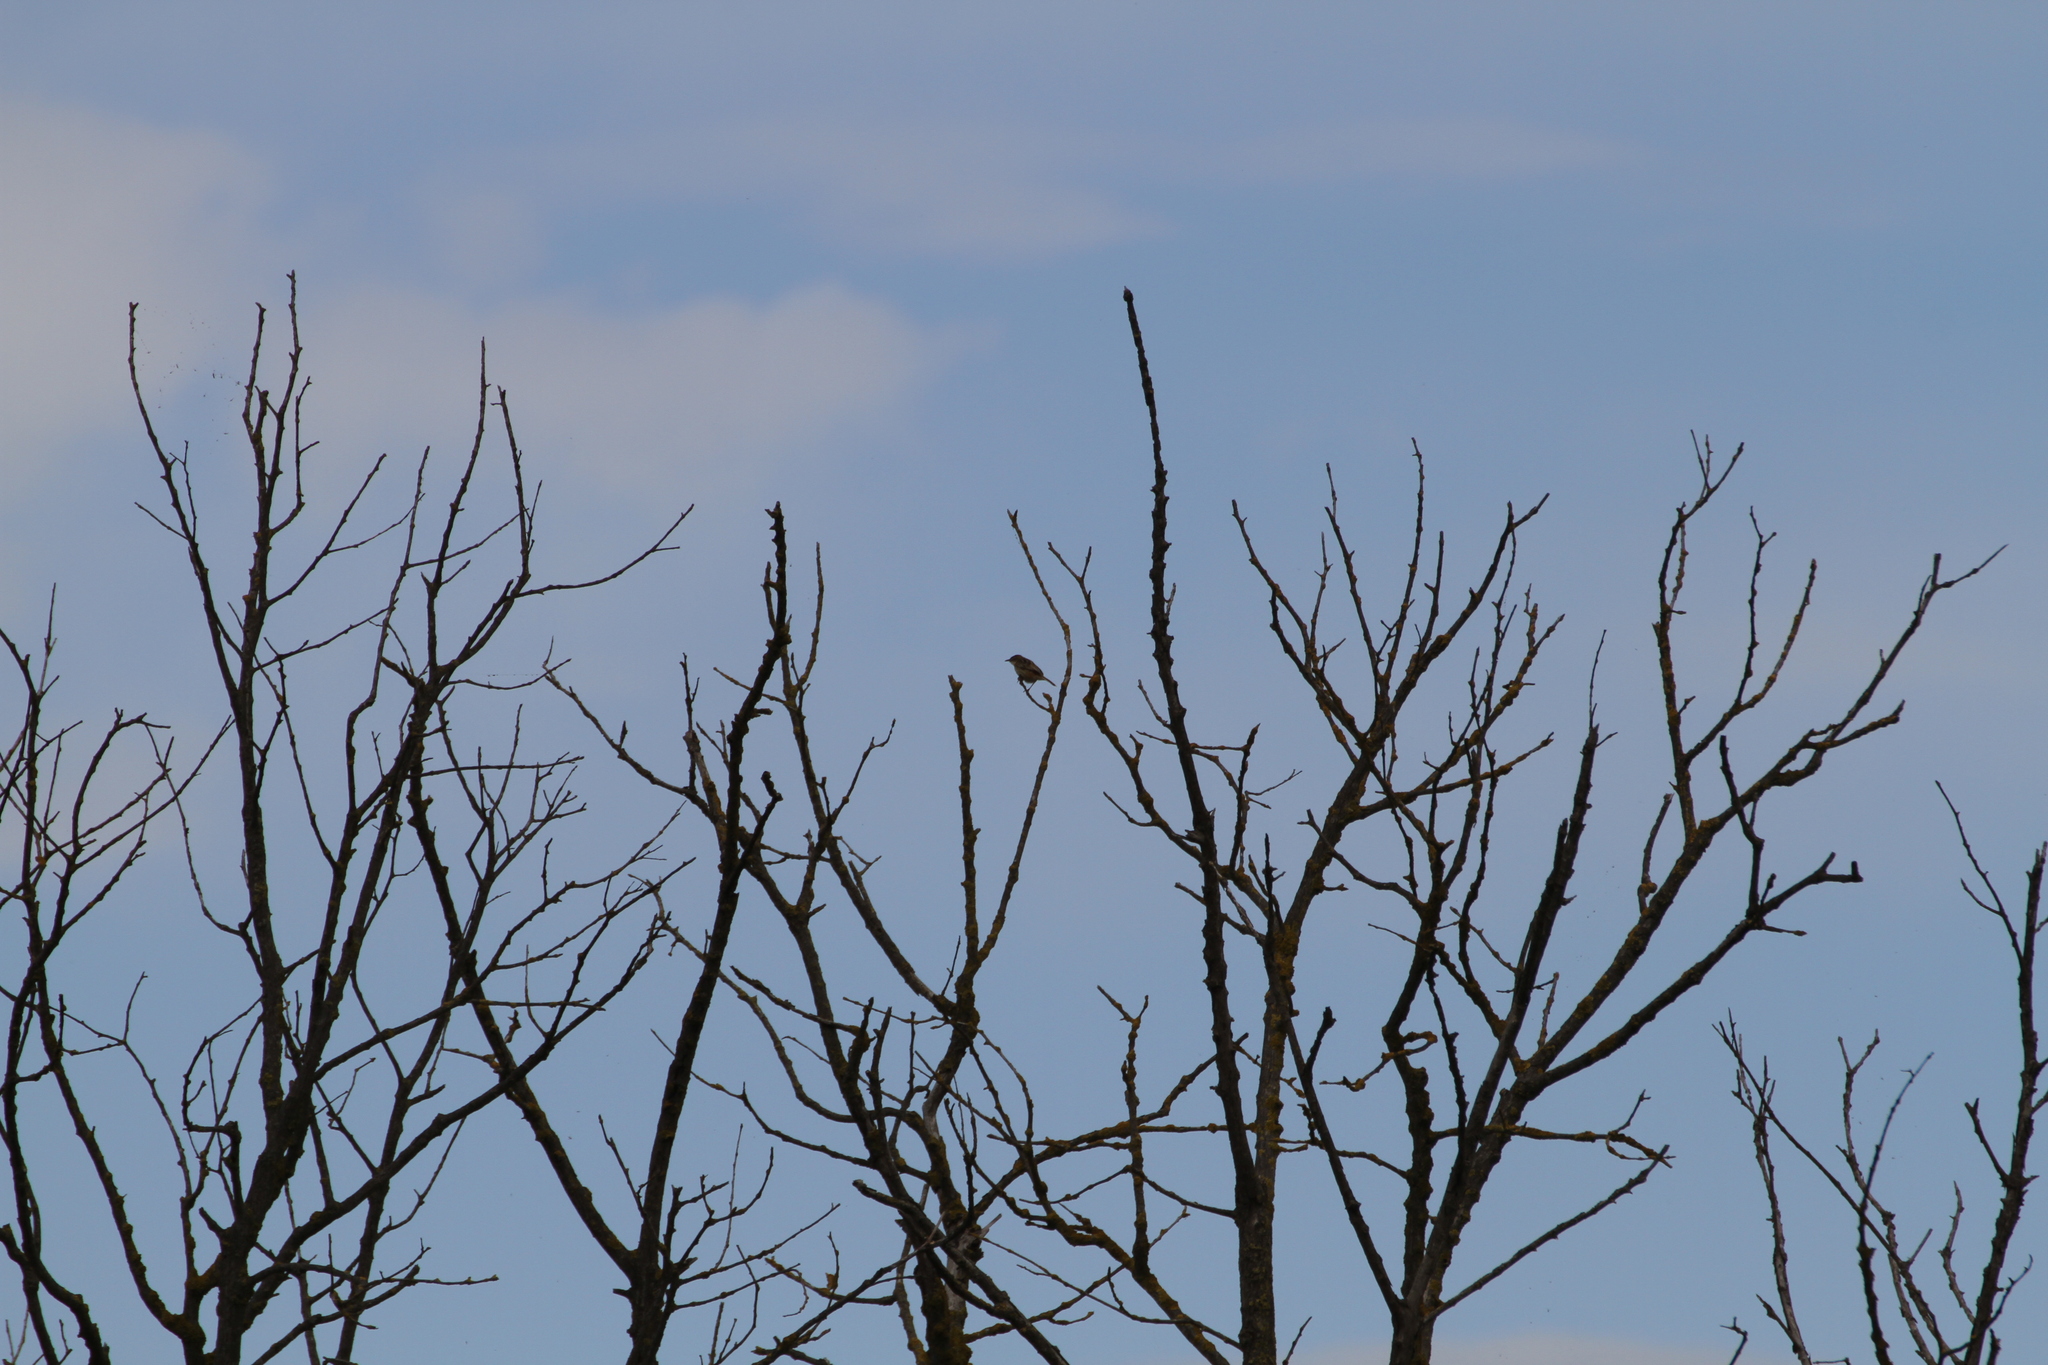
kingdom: Animalia
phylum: Chordata
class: Aves
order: Passeriformes
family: Cisticolidae
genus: Cisticola
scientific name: Cisticola juncidis
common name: Zitting cisticola
